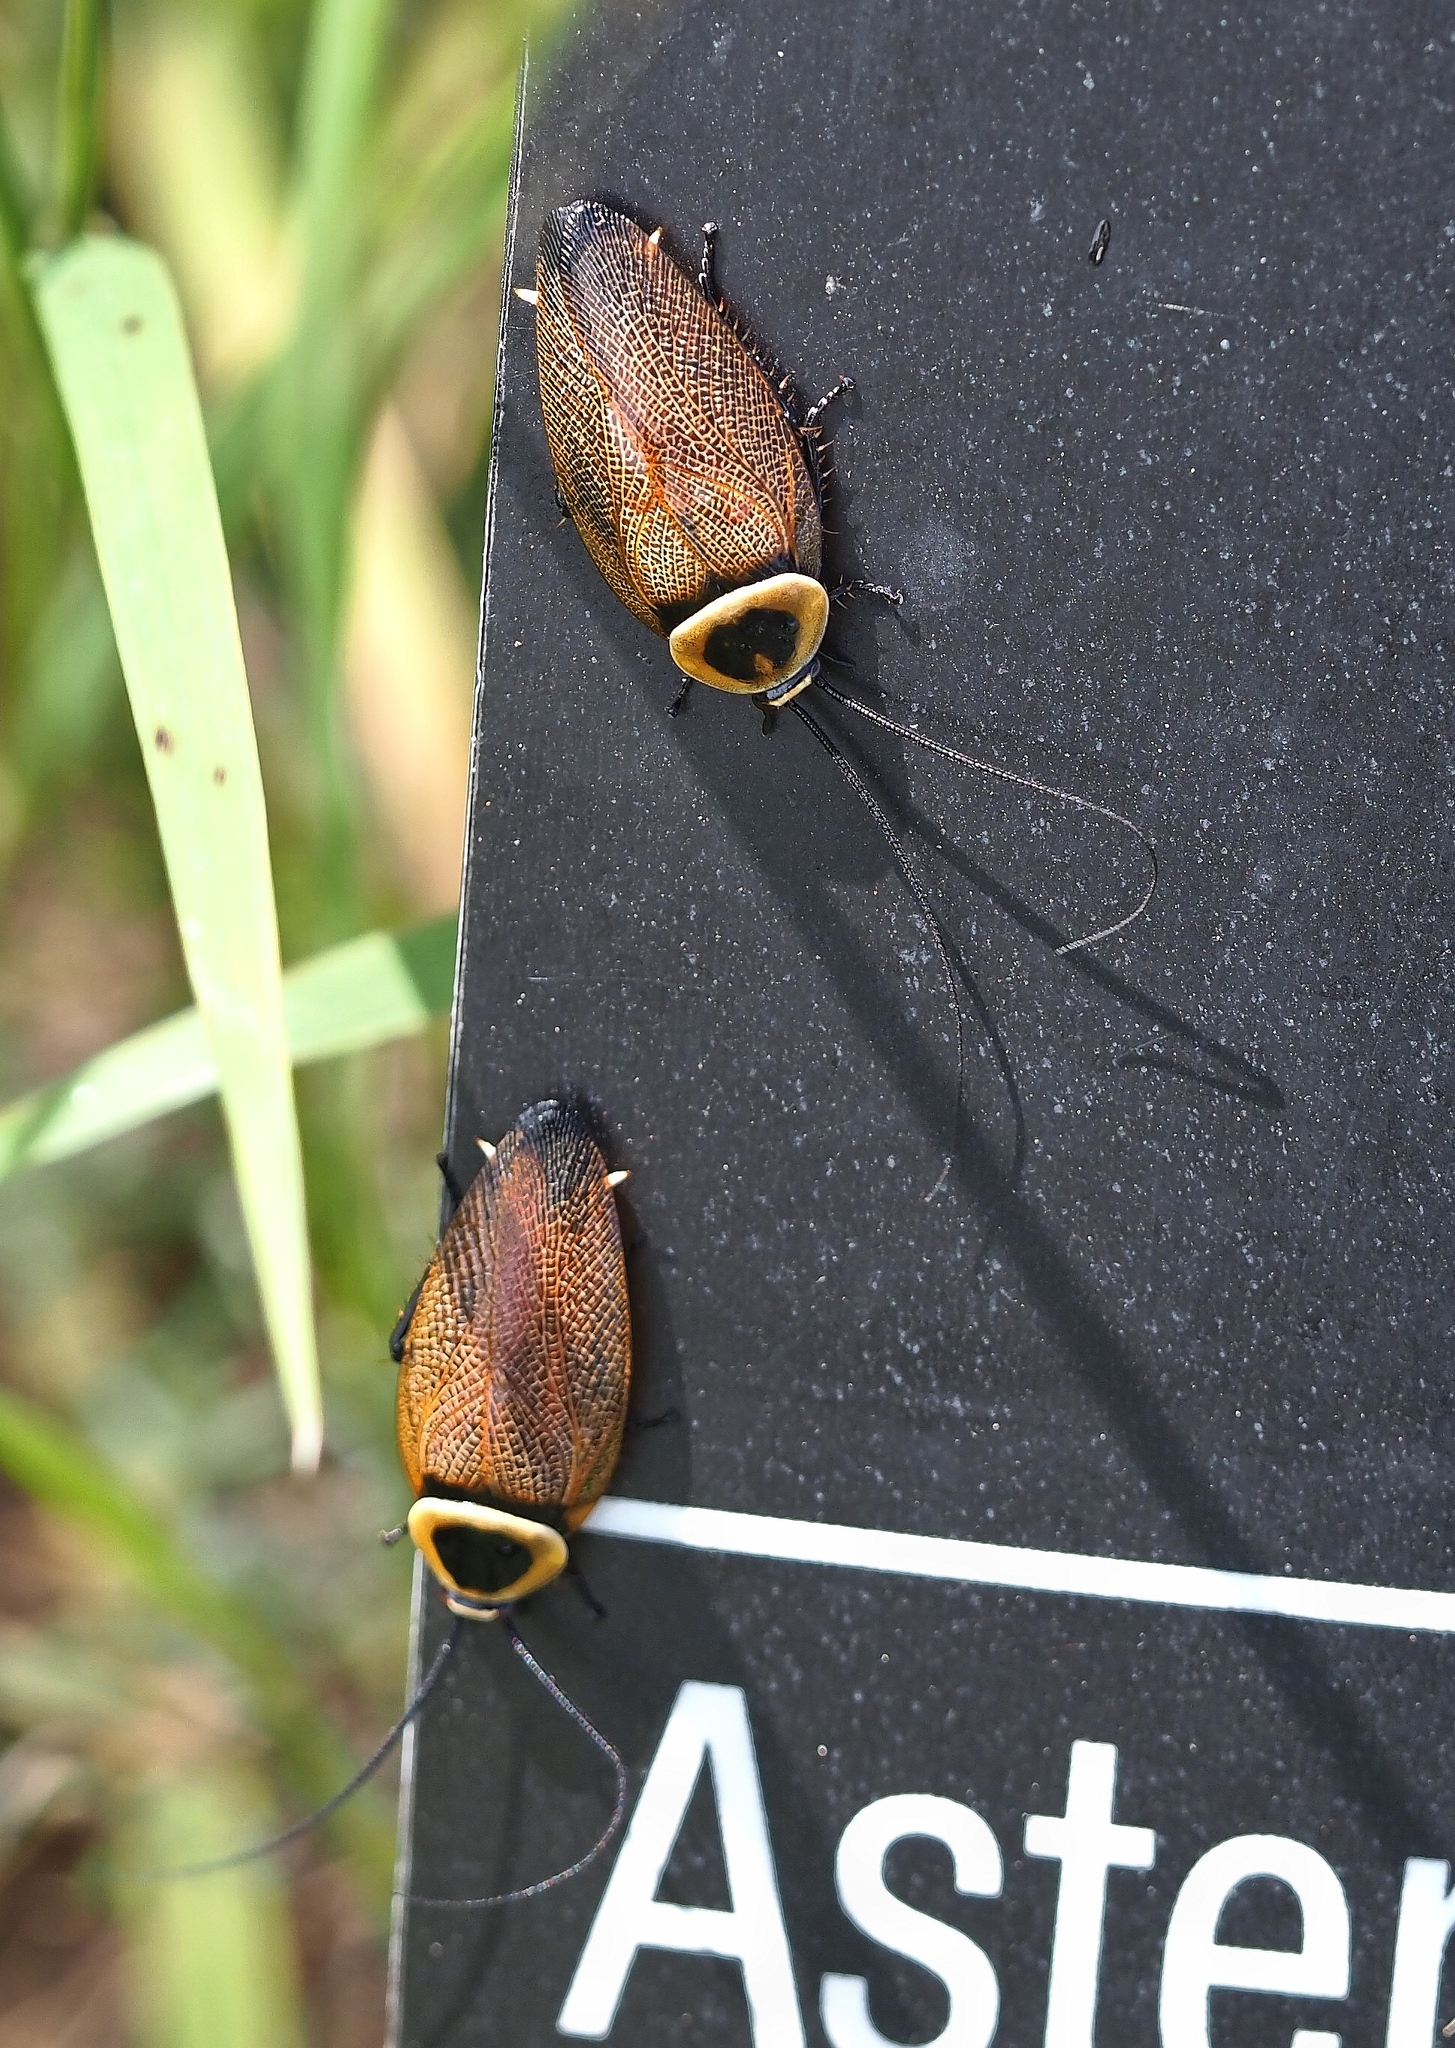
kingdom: Animalia
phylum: Arthropoda
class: Insecta
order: Blattodea
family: Ectobiidae
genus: Ellipsidion
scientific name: Ellipsidion australe
